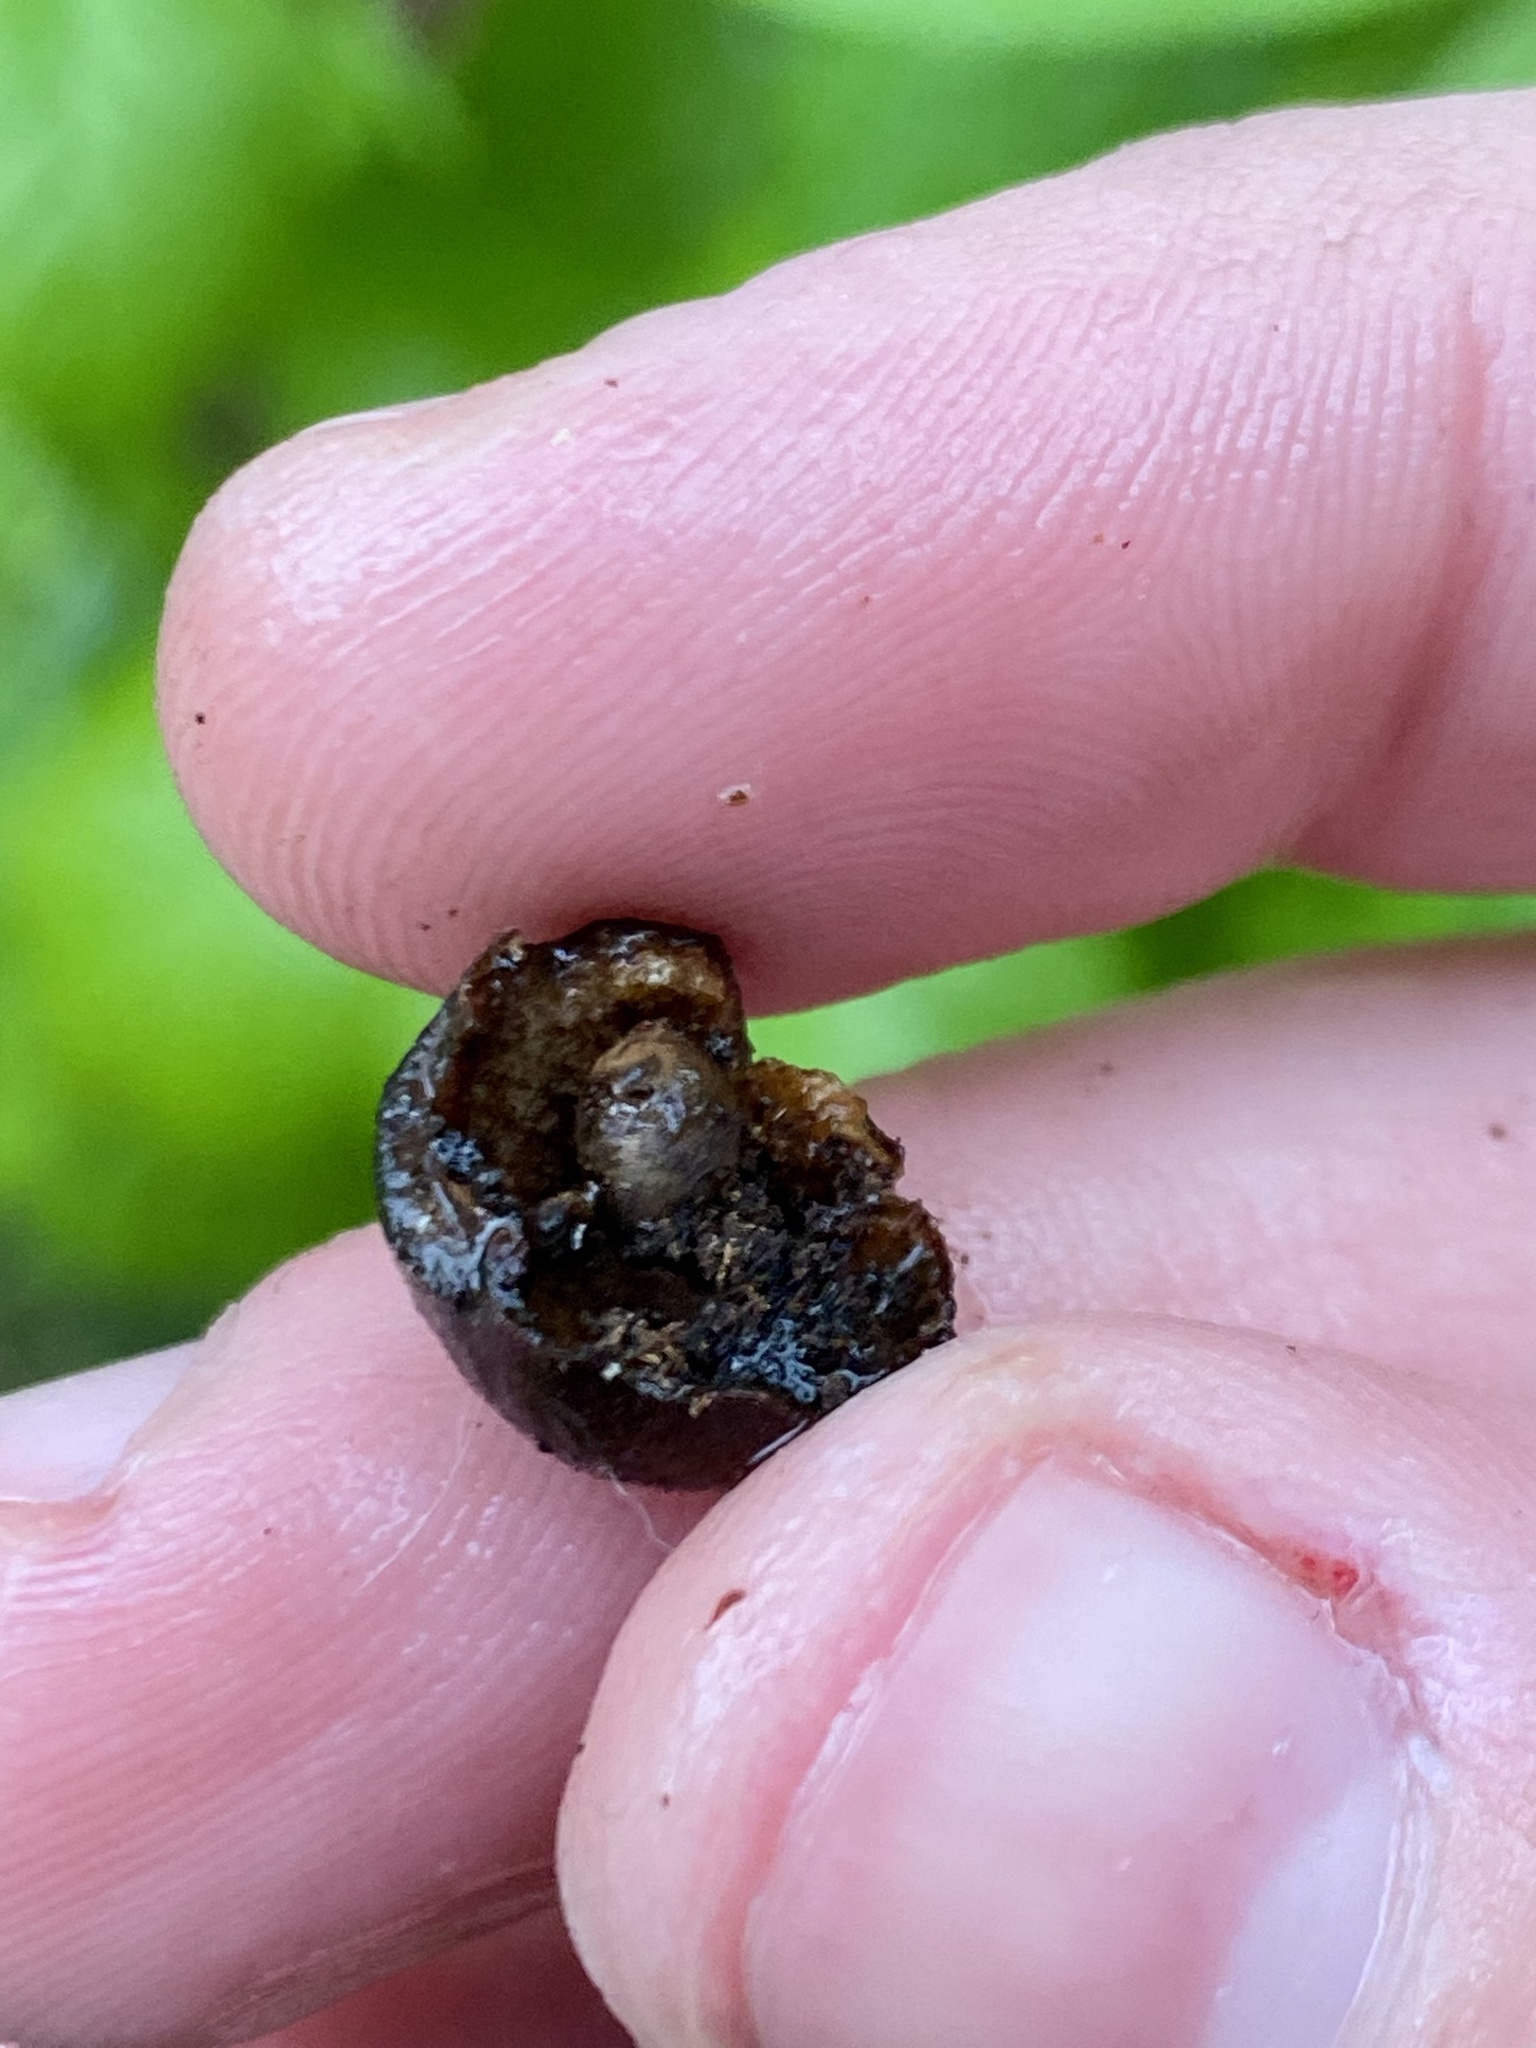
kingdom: Animalia
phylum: Arthropoda
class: Insecta
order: Hymenoptera
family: Cynipidae
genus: Disholcaspis
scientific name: Disholcaspis
